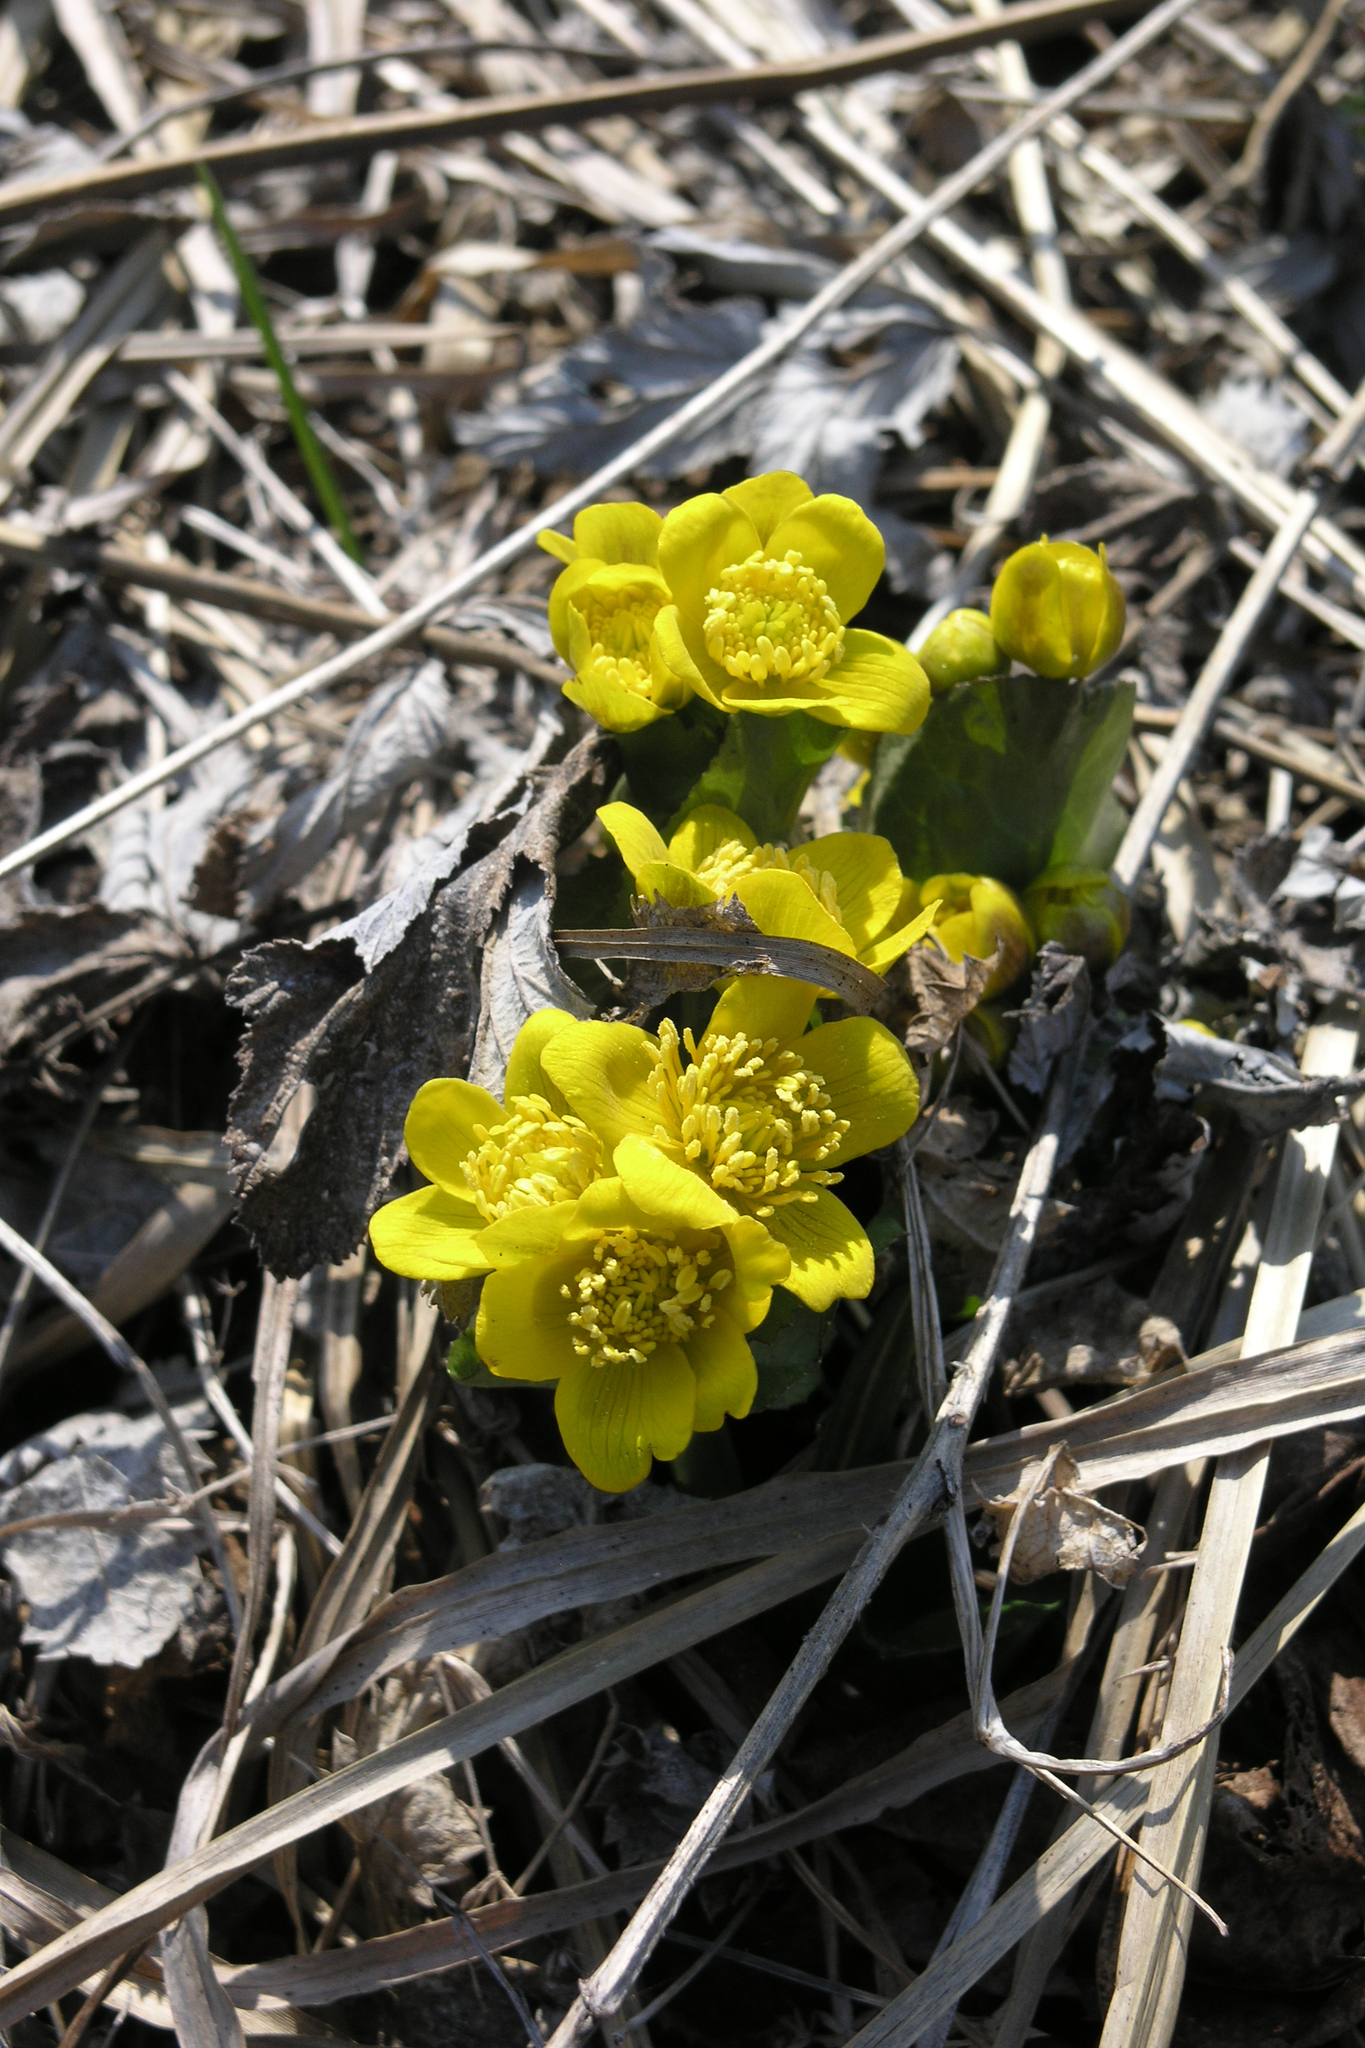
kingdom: Plantae
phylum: Tracheophyta
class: Magnoliopsida
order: Ranunculales
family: Ranunculaceae
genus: Caltha
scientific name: Caltha palustris
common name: Marsh marigold
